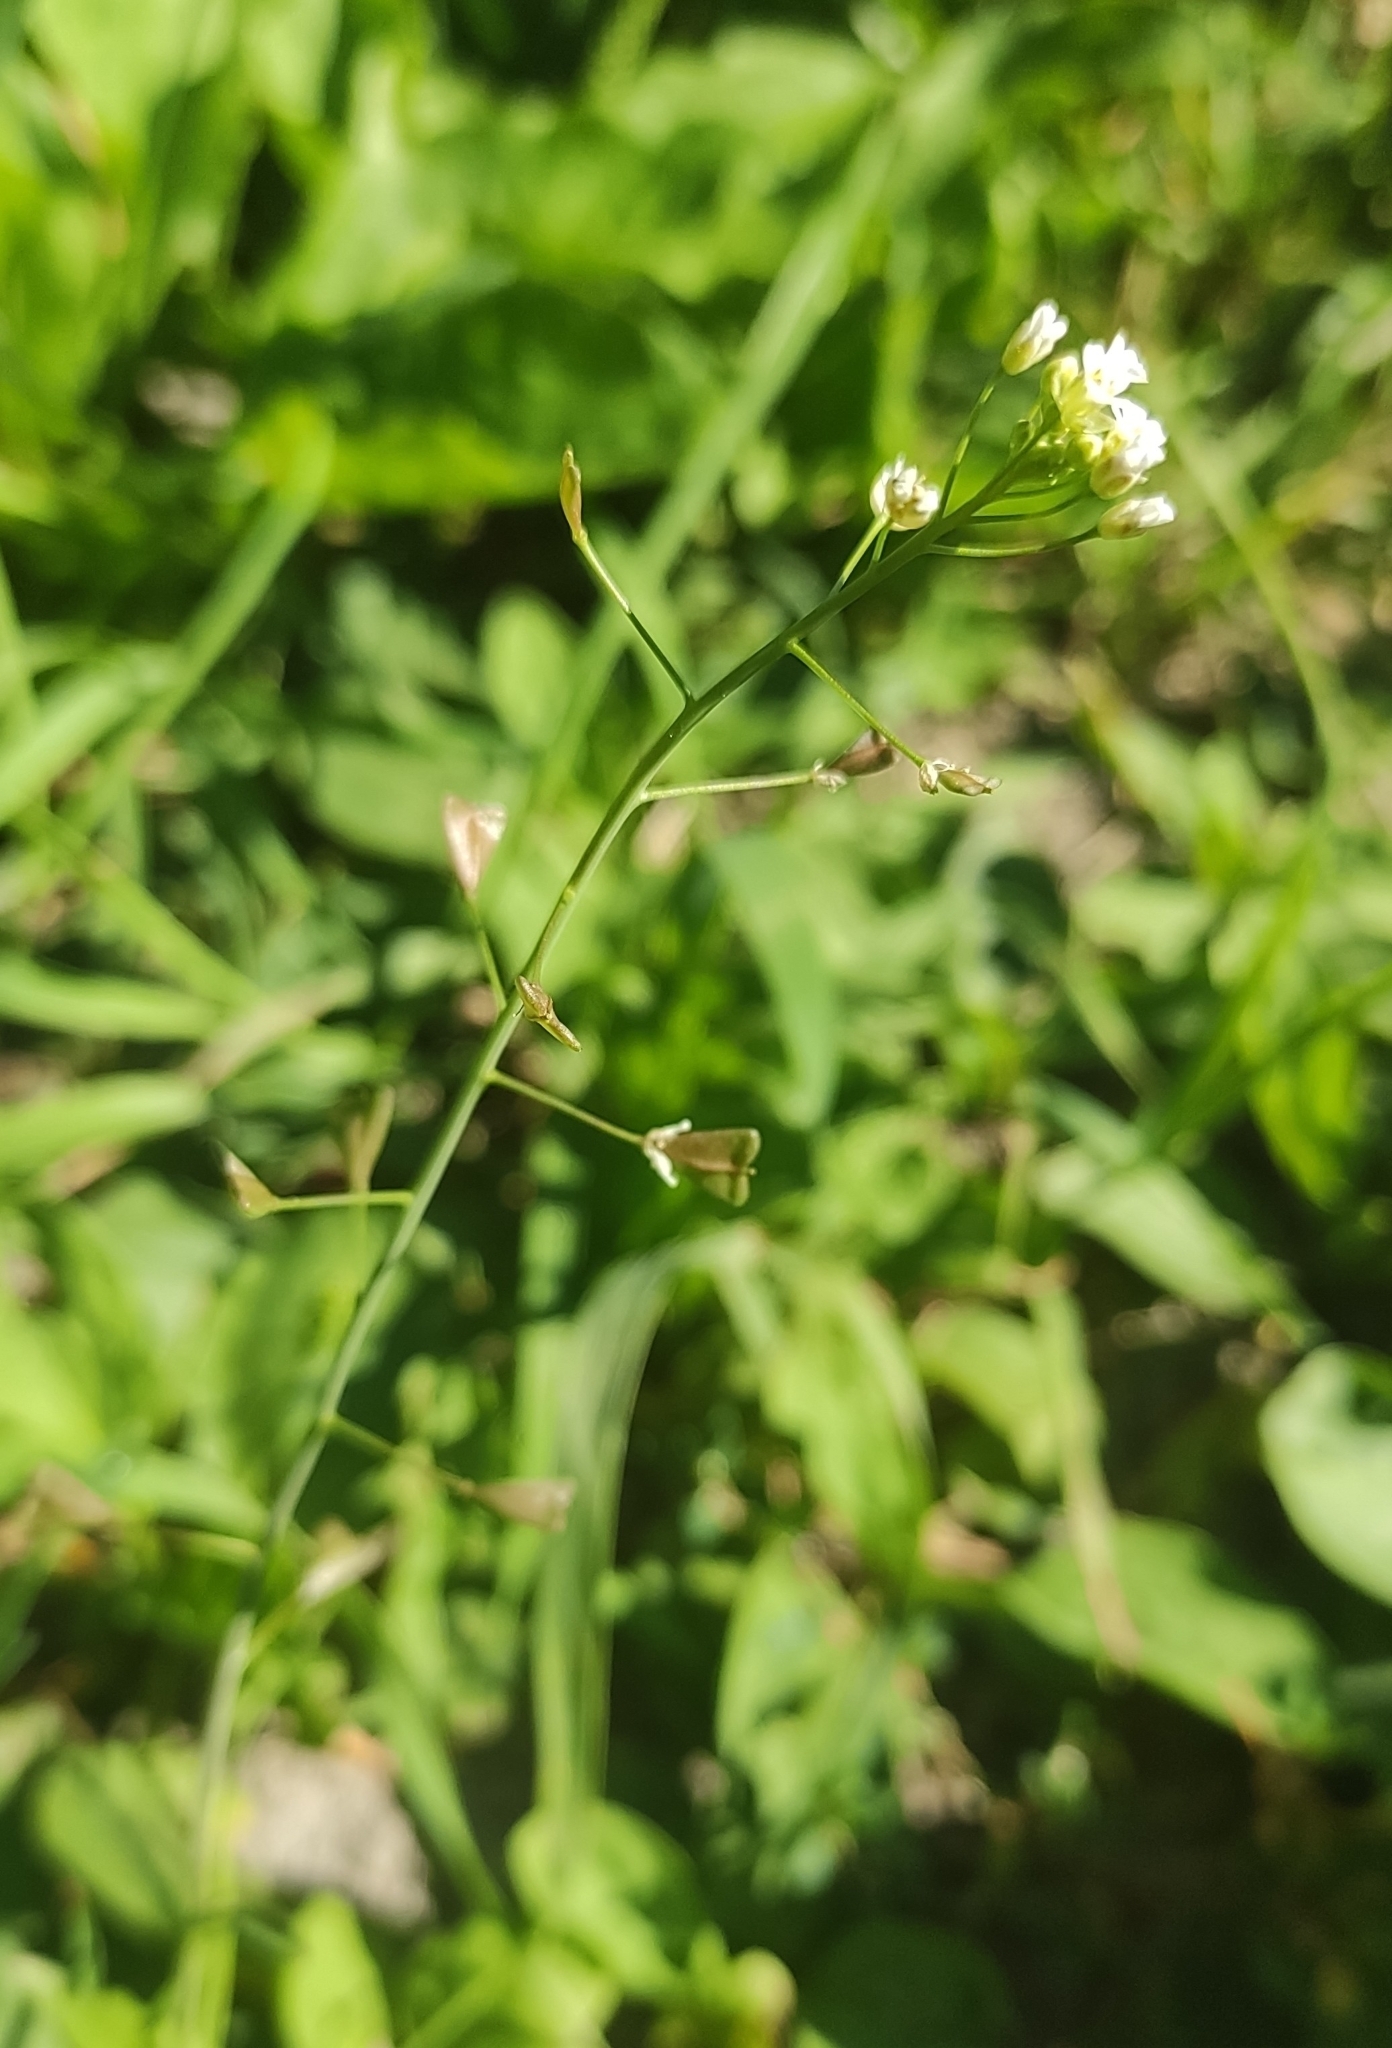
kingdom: Plantae
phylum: Tracheophyta
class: Magnoliopsida
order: Brassicales
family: Brassicaceae
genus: Capsella
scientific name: Capsella bursa-pastoris
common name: Shepherd's purse
